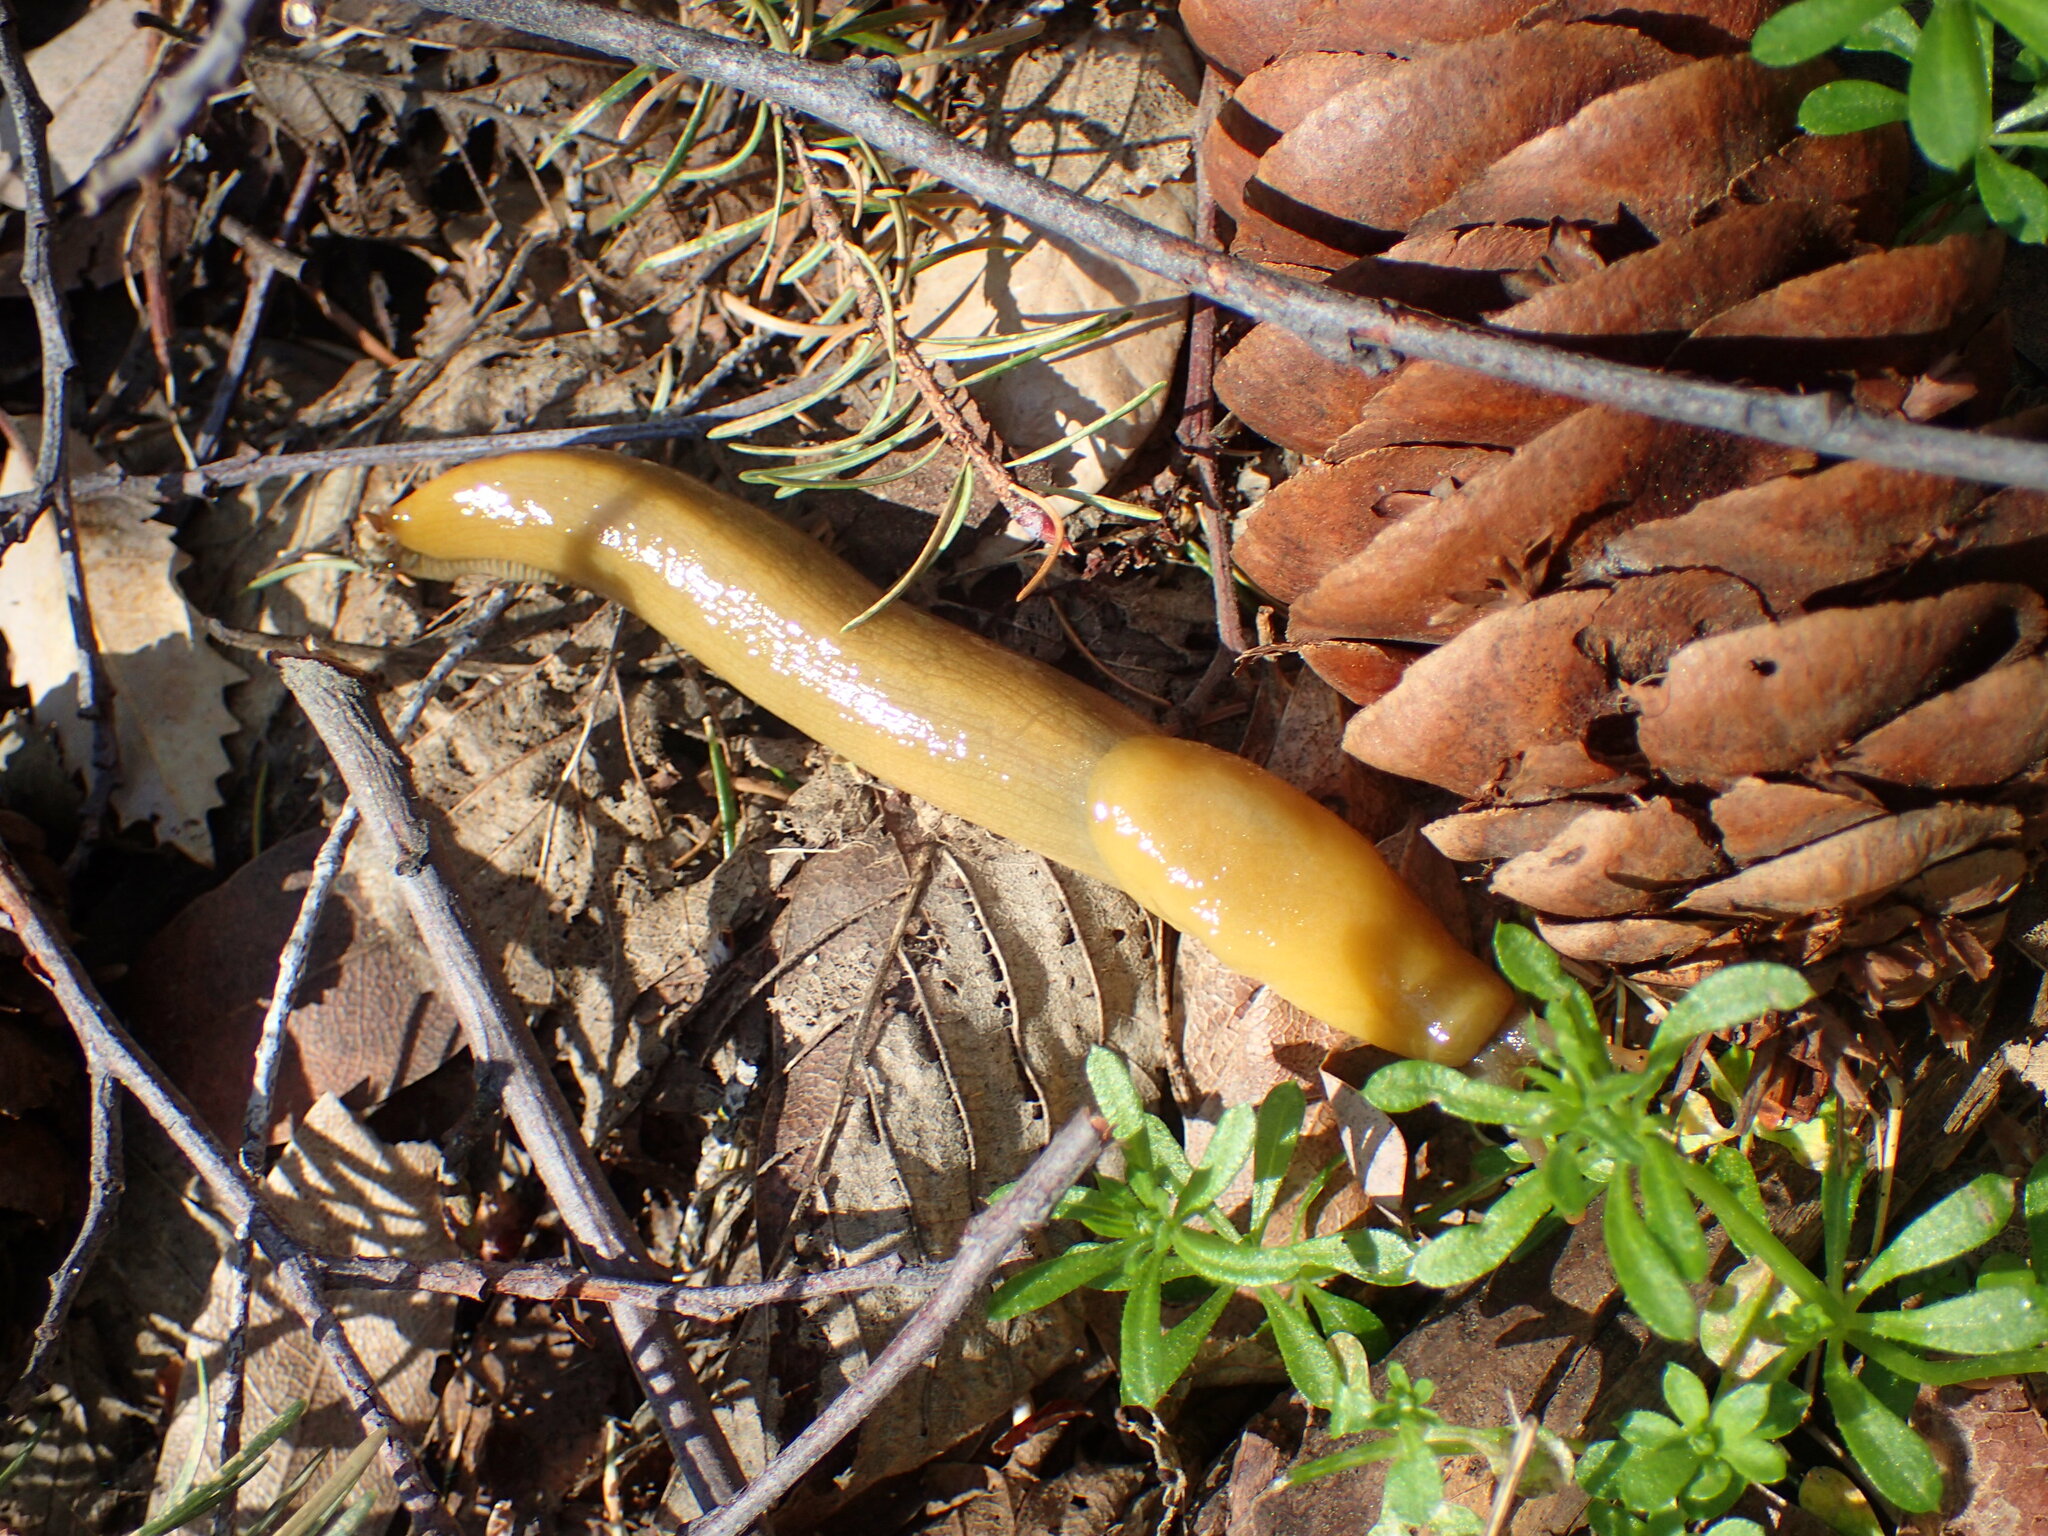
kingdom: Animalia
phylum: Mollusca
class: Gastropoda
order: Stylommatophora
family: Ariolimacidae
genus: Ariolimax
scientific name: Ariolimax stramineus
